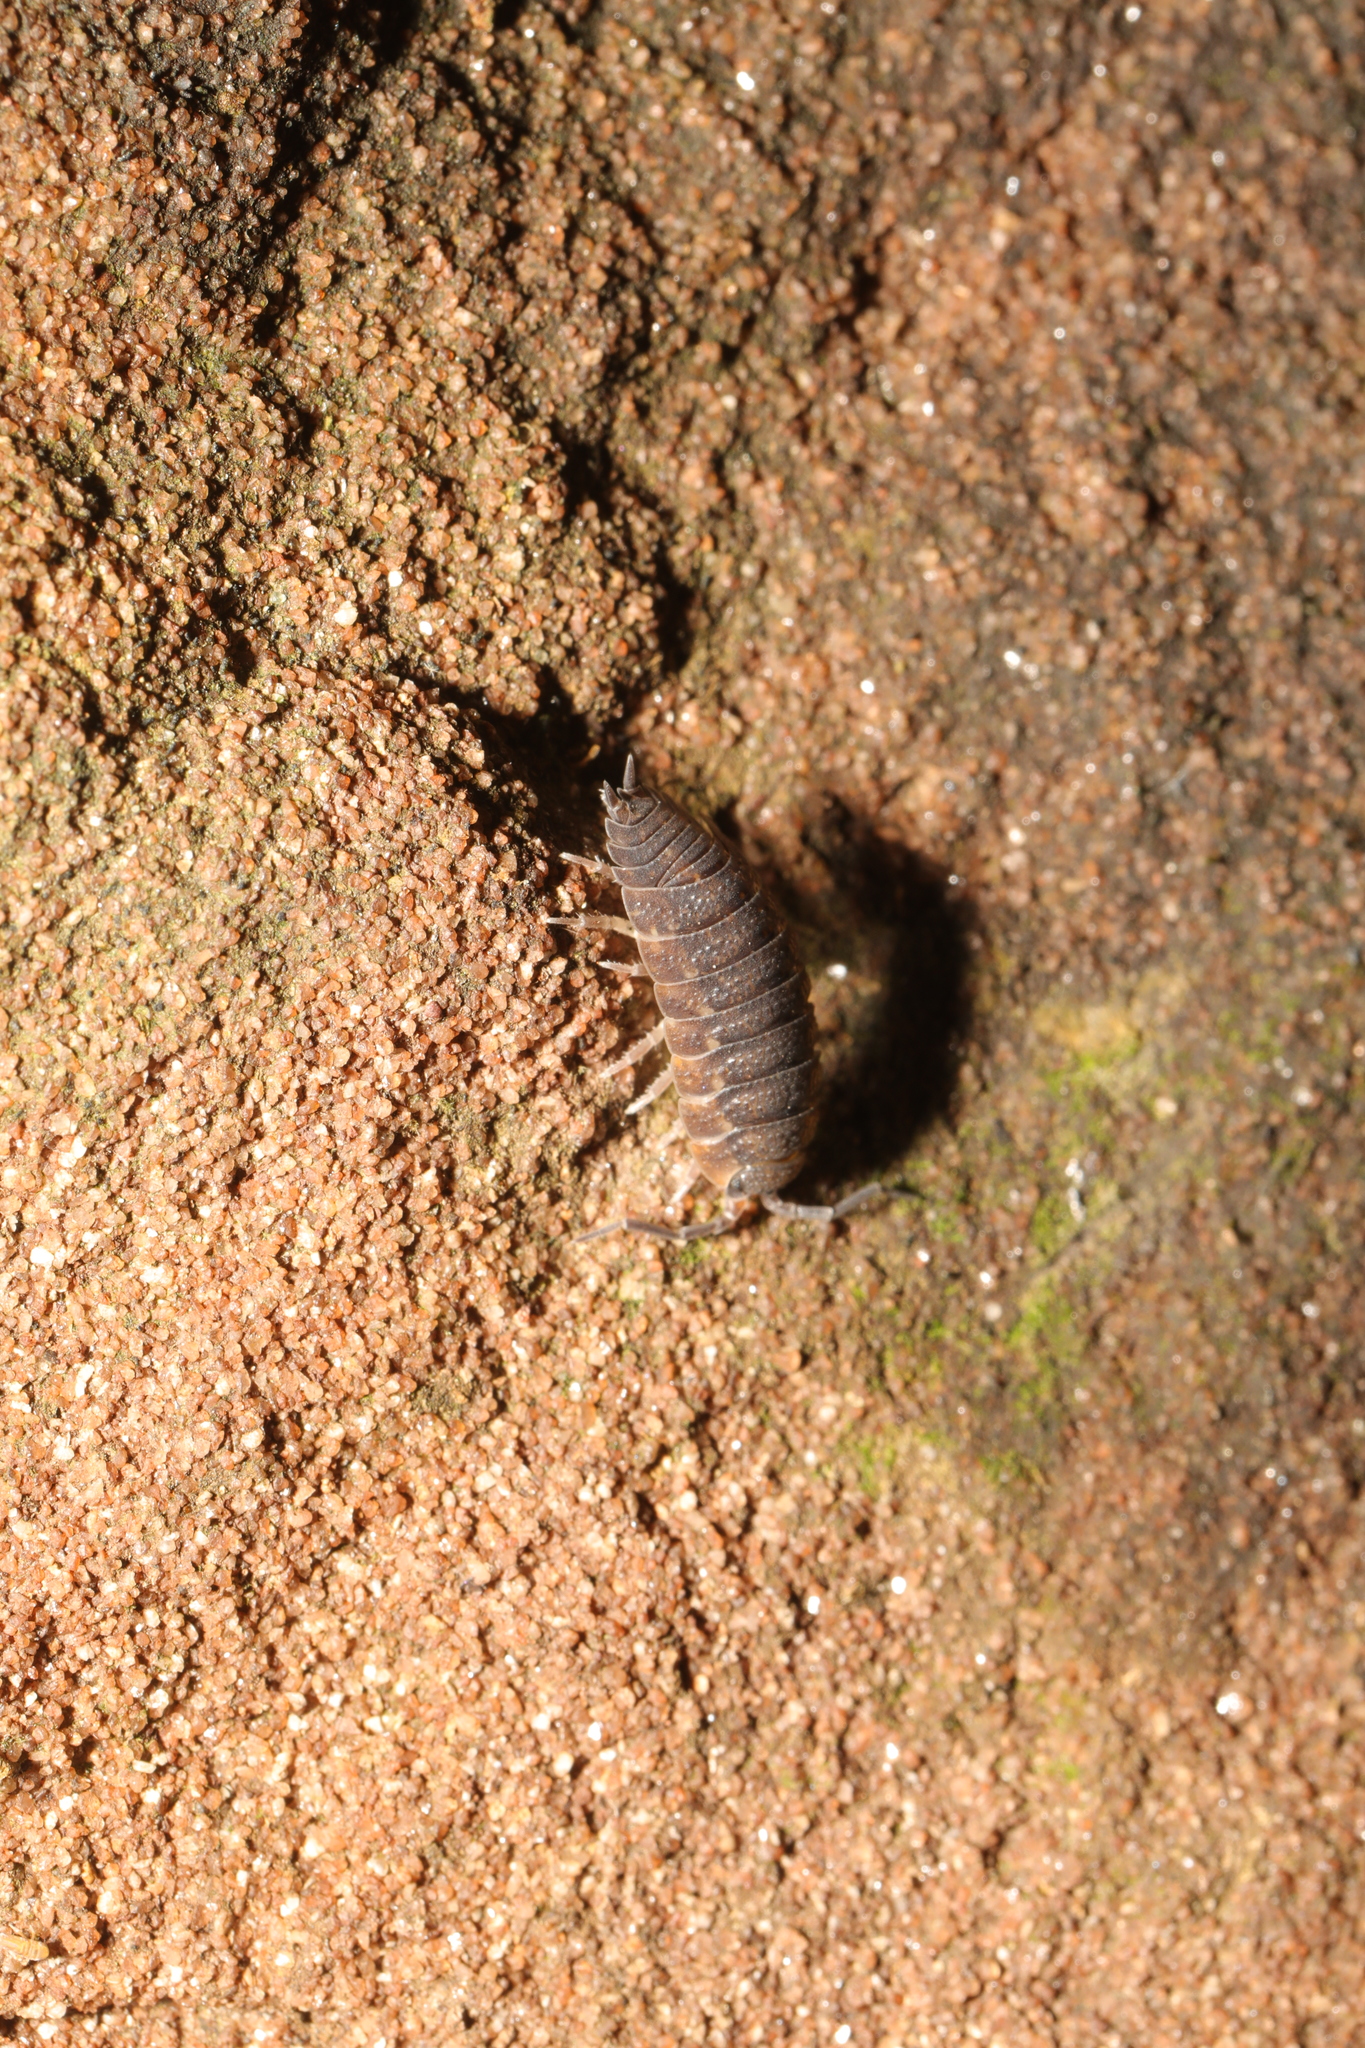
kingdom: Animalia
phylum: Arthropoda
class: Malacostraca
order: Isopoda
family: Porcellionidae
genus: Porcellio
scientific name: Porcellio scaber
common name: Common rough woodlouse
